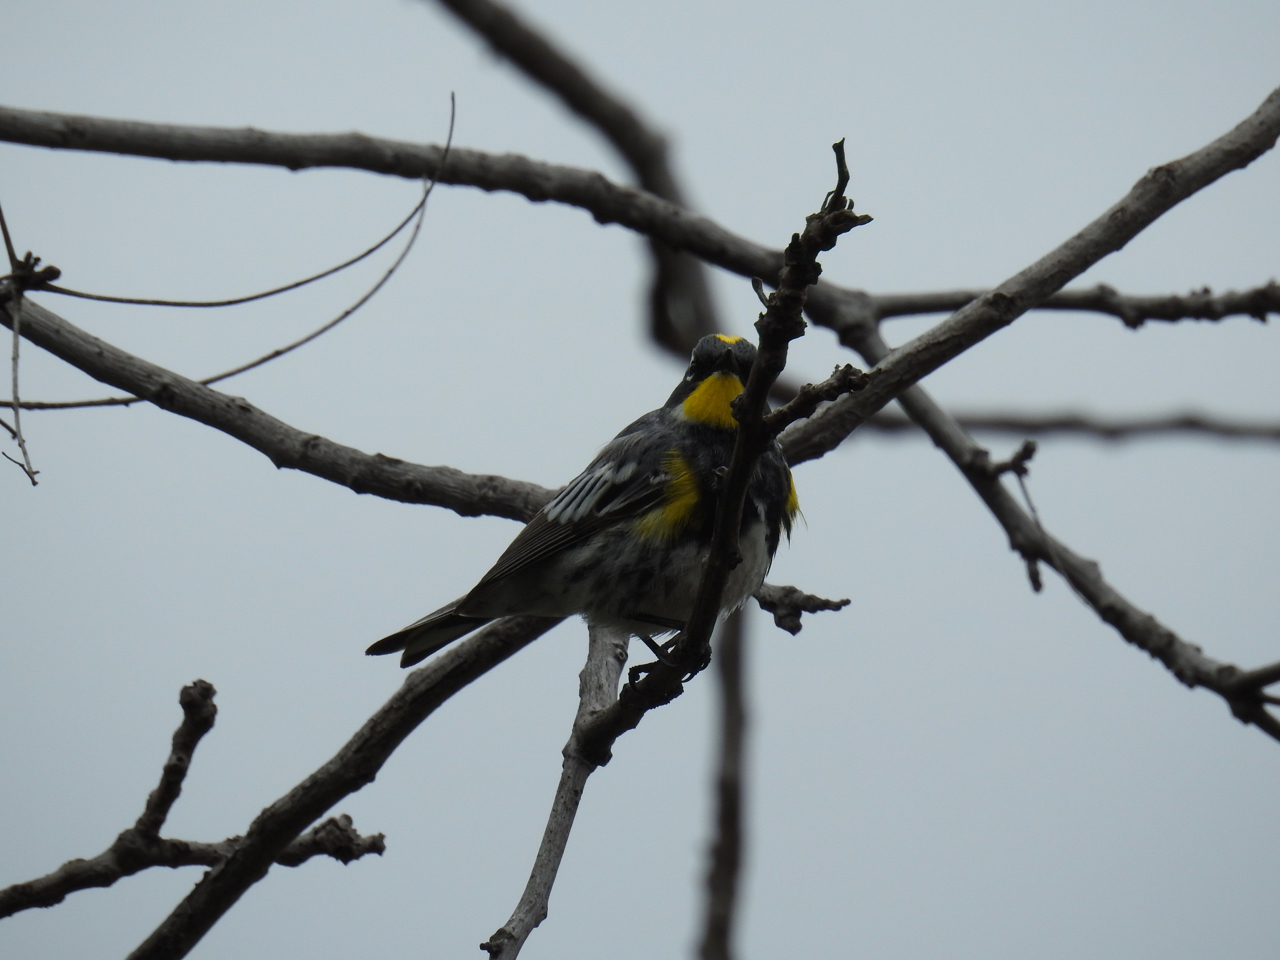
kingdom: Animalia
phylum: Chordata
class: Aves
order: Passeriformes
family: Parulidae
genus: Setophaga
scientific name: Setophaga coronata
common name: Myrtle warbler
